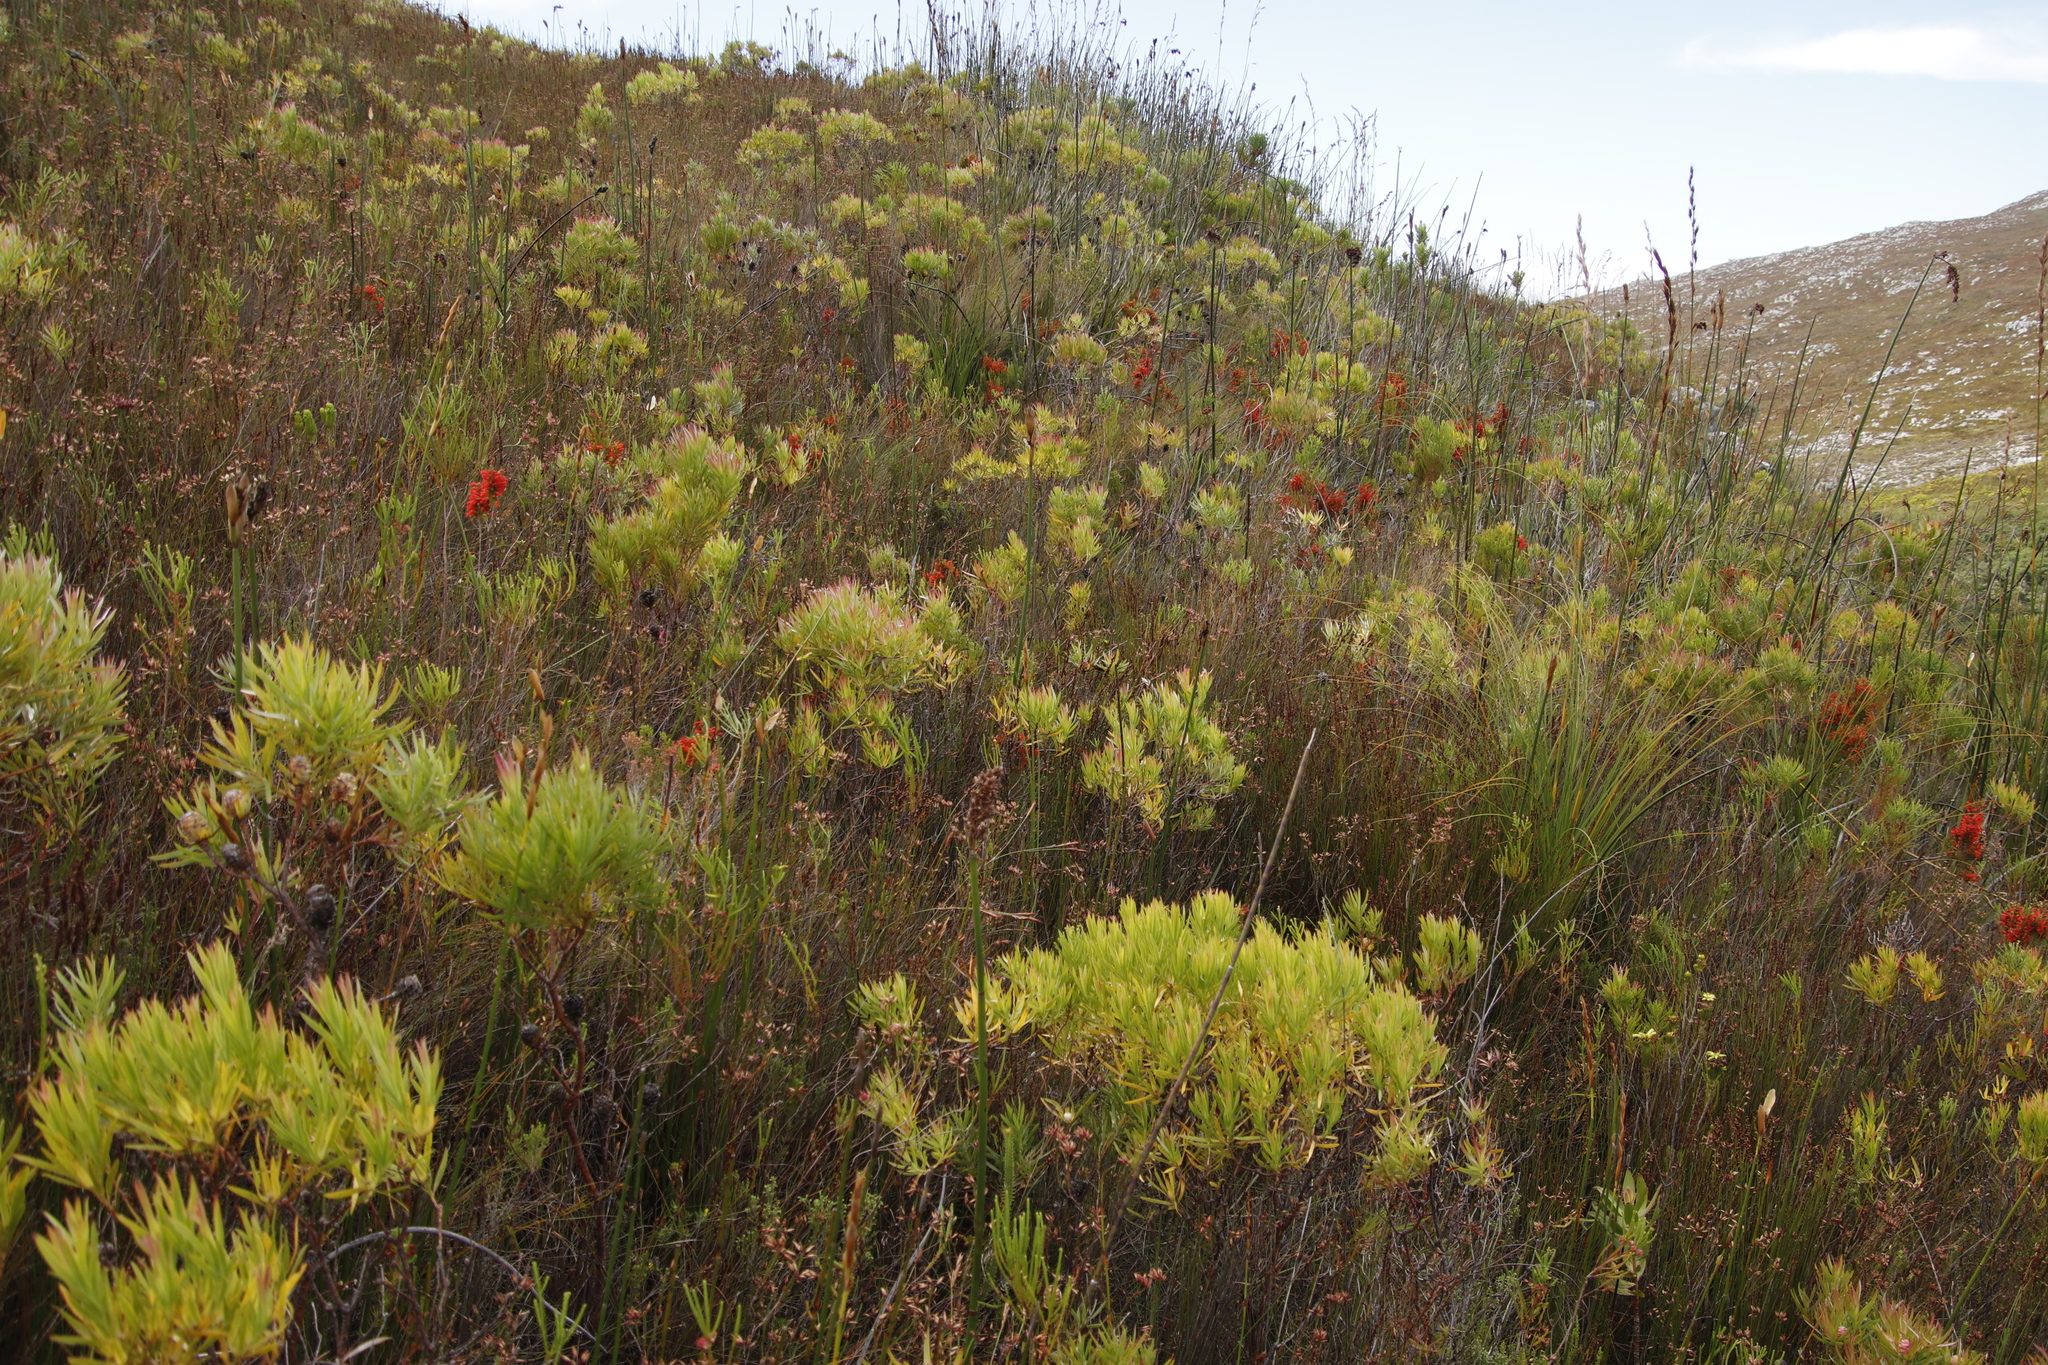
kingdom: Plantae
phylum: Tracheophyta
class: Magnoliopsida
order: Proteales
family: Proteaceae
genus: Leucadendron
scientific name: Leucadendron xanthoconus
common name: Sickle-leaf conebush
